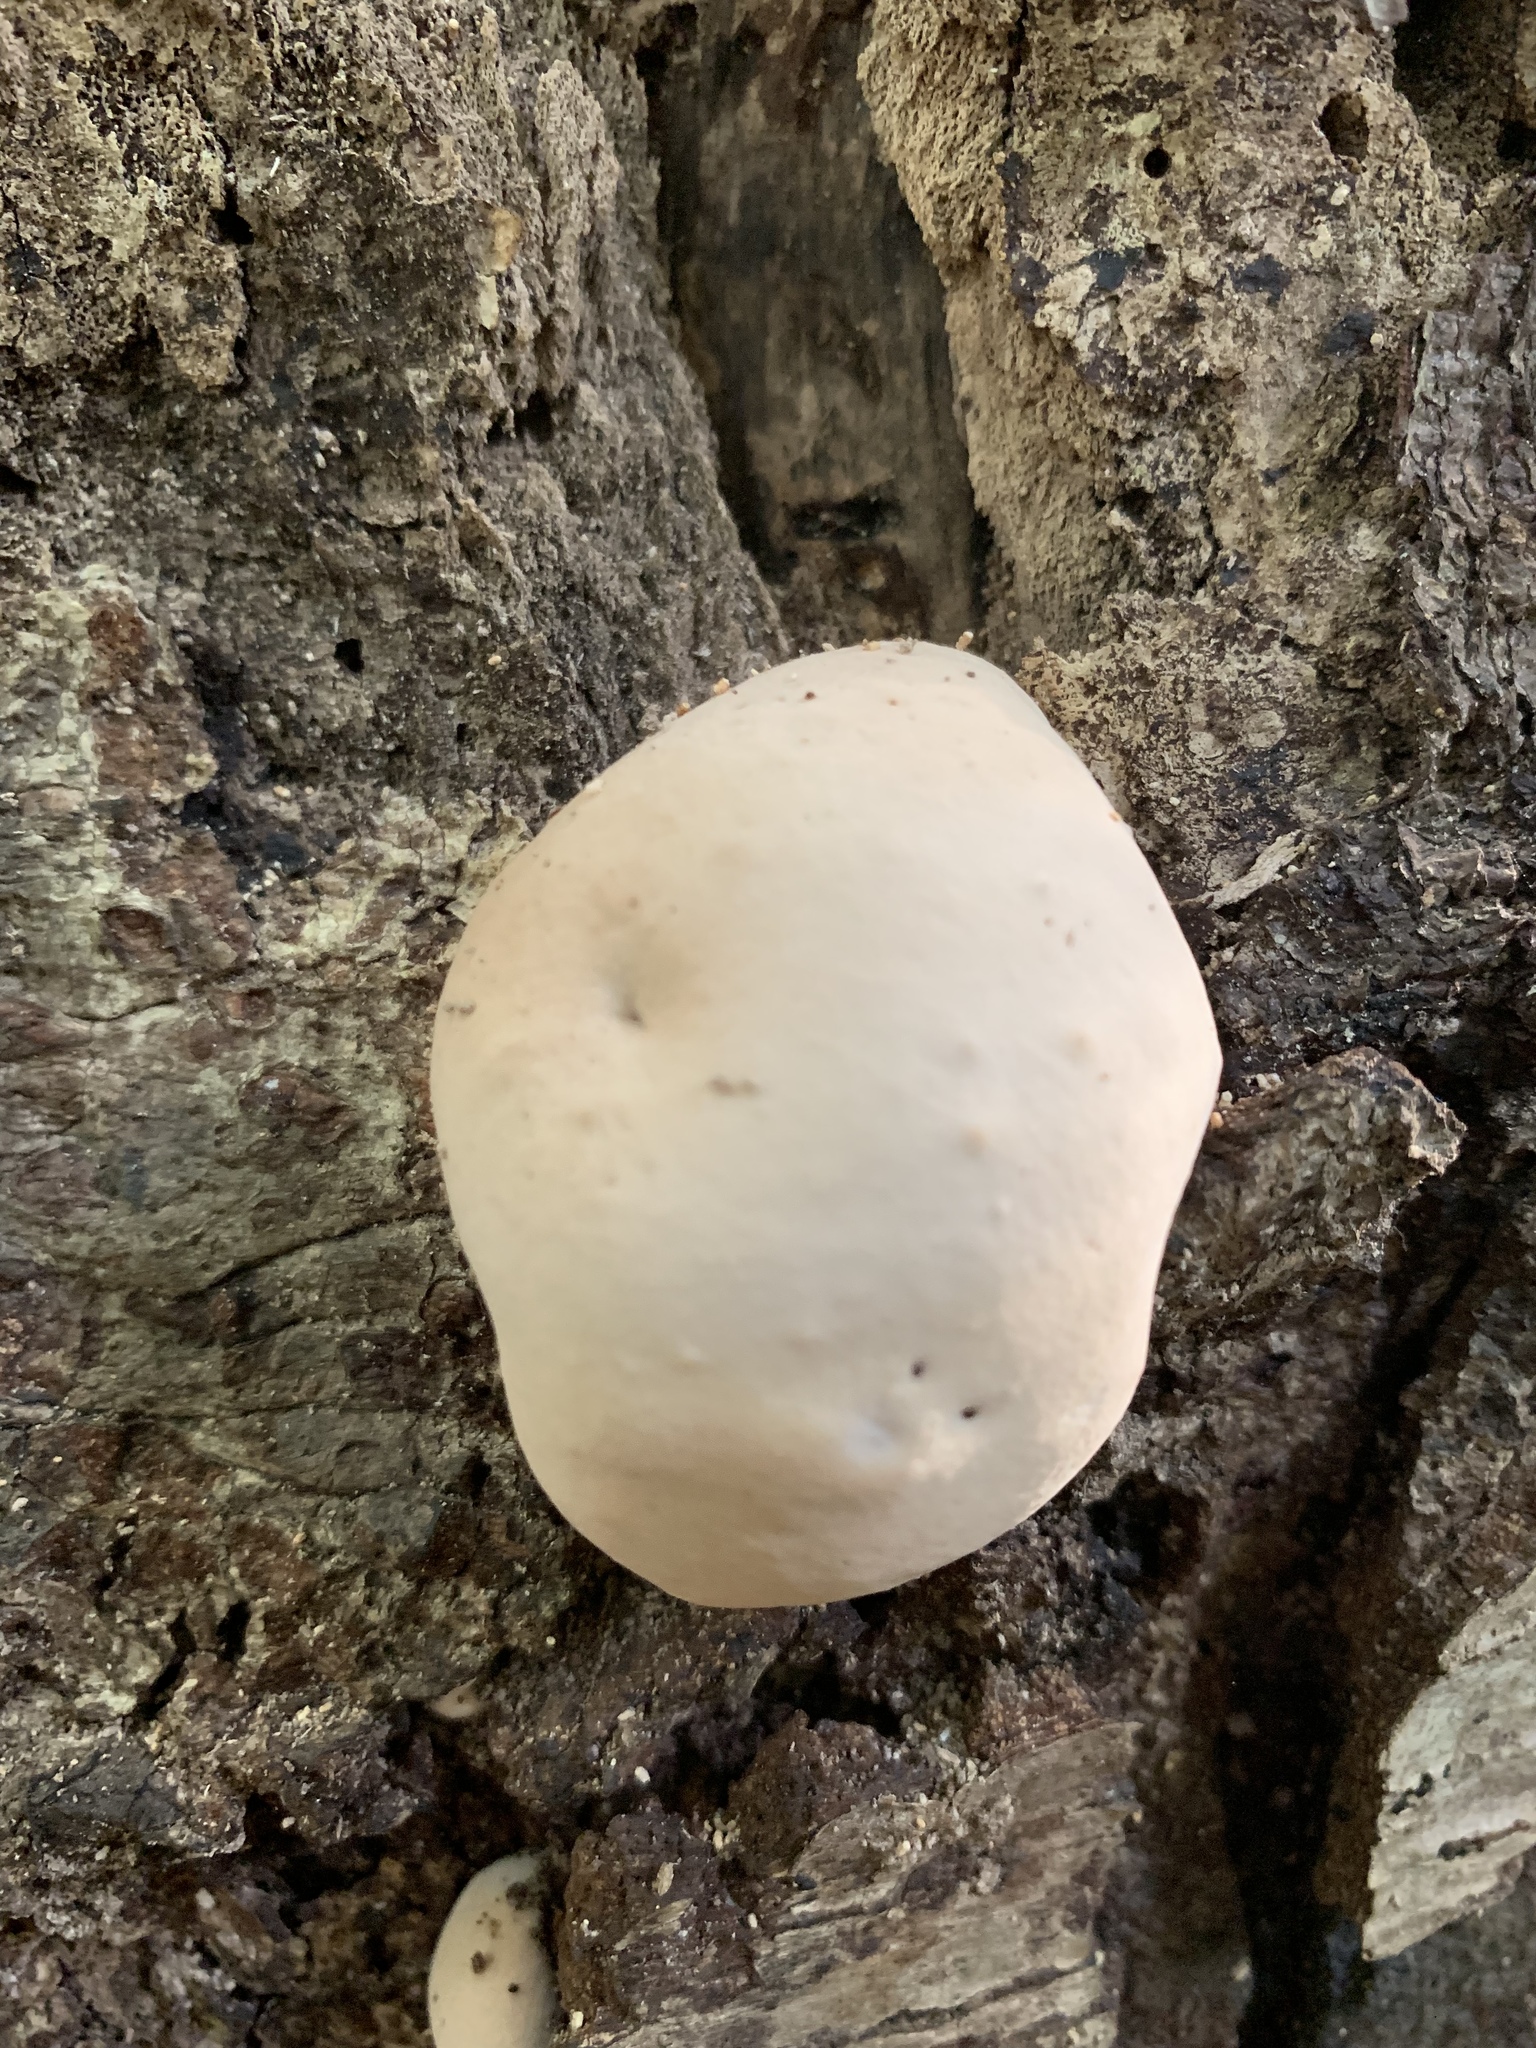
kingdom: Protozoa
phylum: Mycetozoa
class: Myxomycetes
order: Cribrariales
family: Tubiferaceae
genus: Reticularia
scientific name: Reticularia lycoperdon
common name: False puffball
